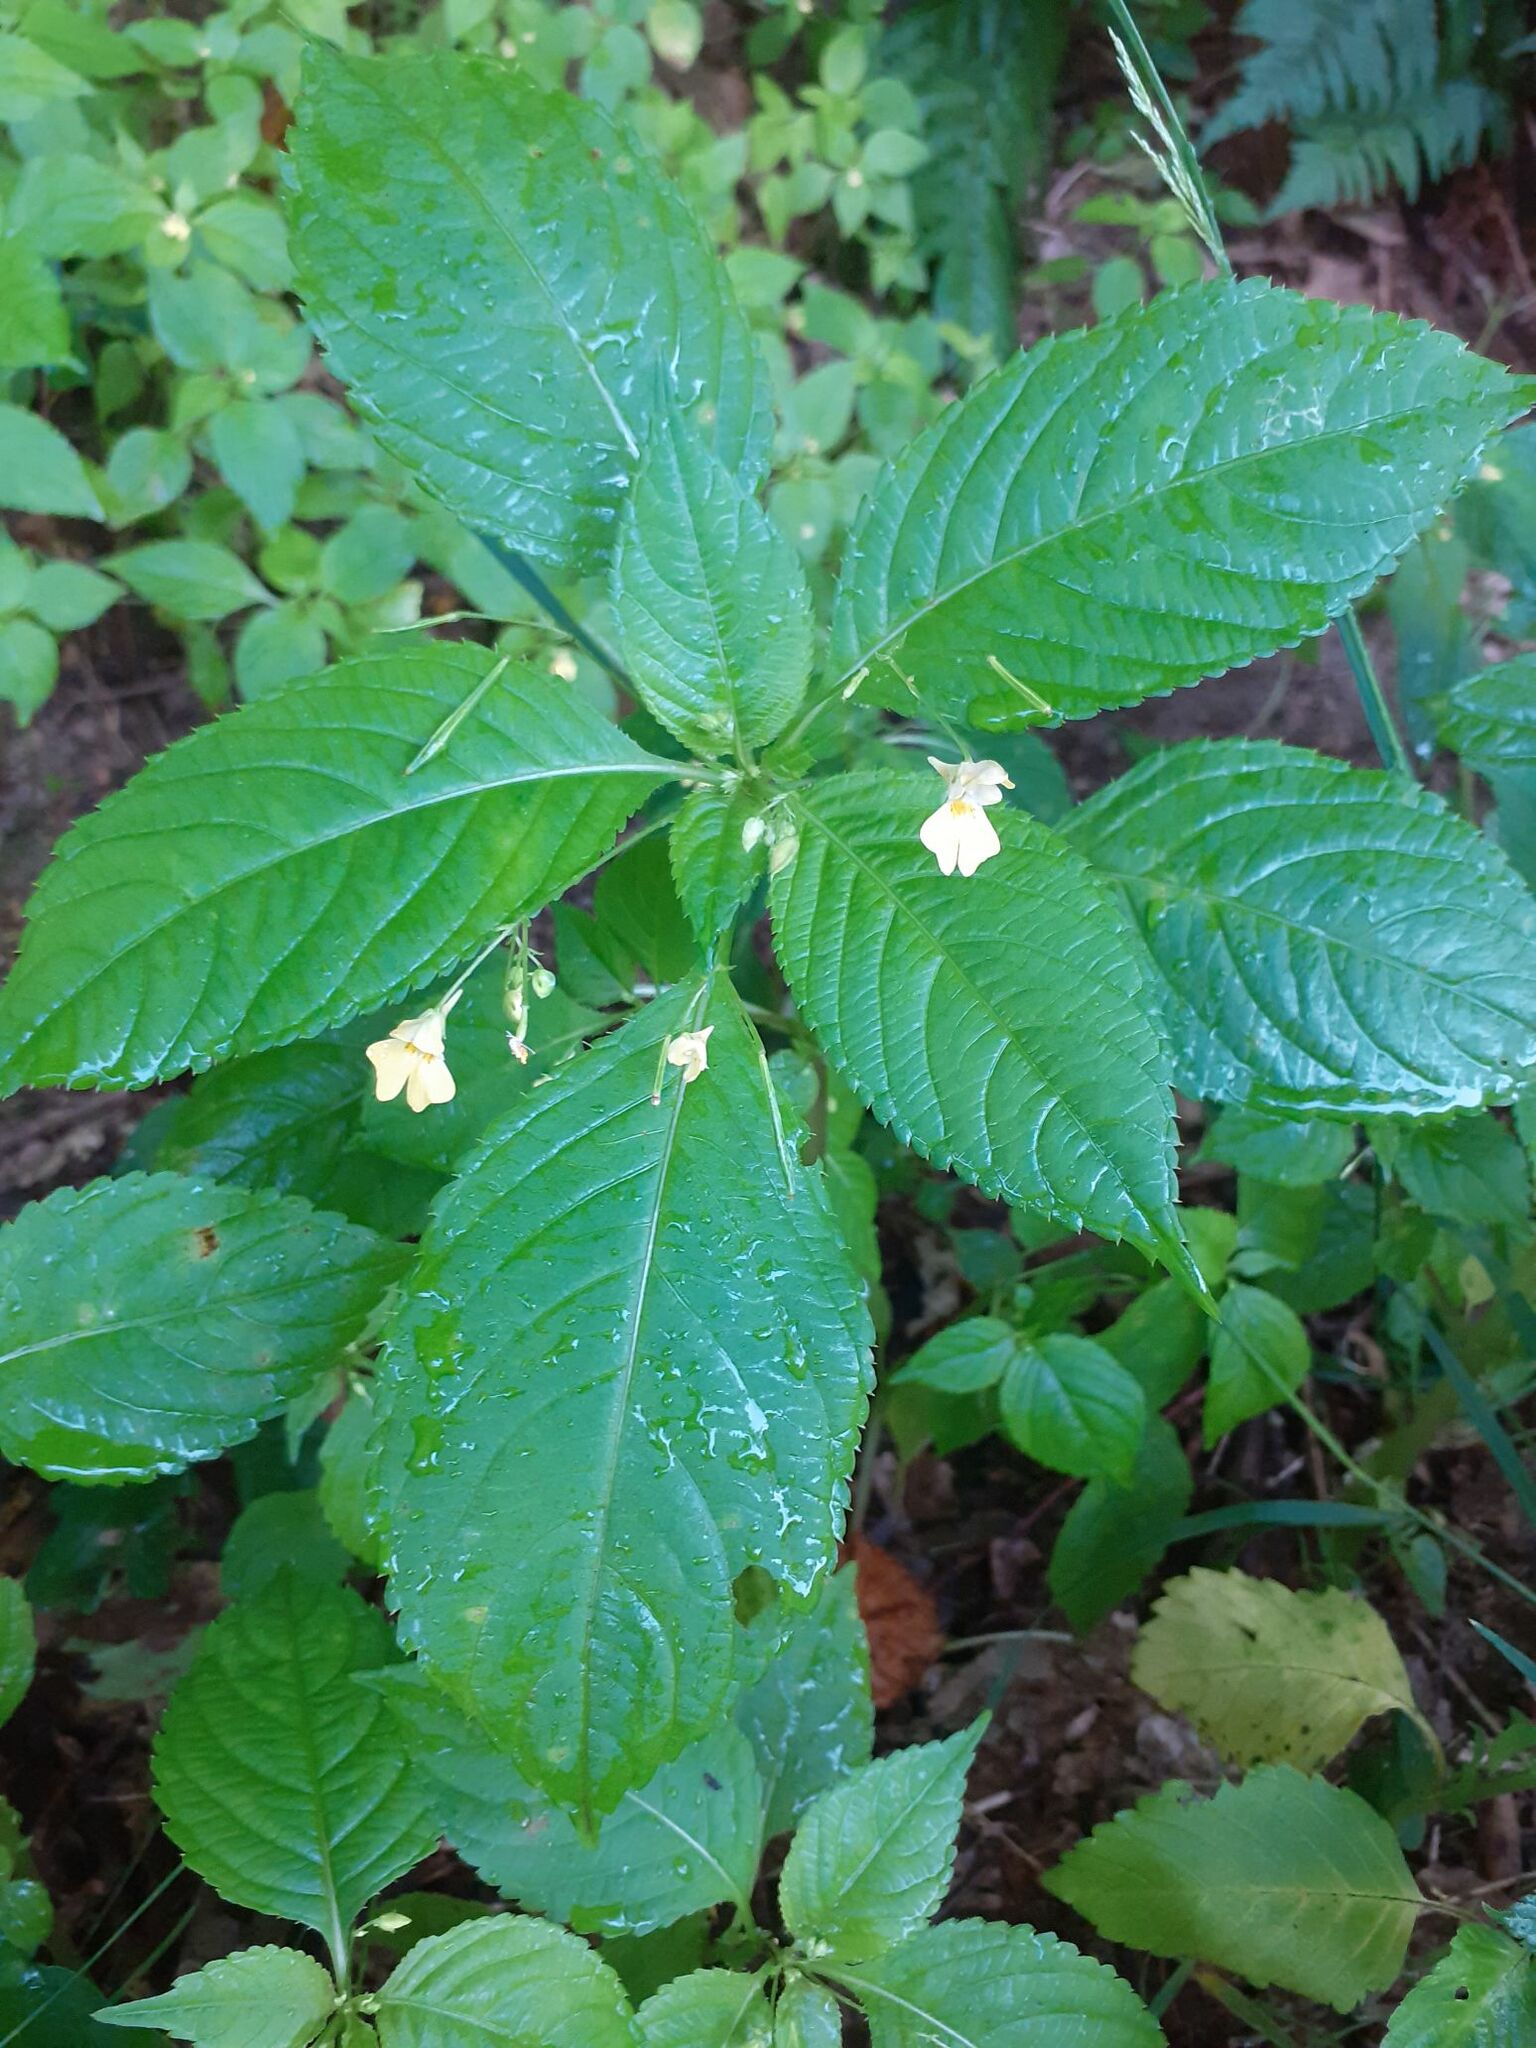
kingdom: Plantae
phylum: Tracheophyta
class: Magnoliopsida
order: Ericales
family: Balsaminaceae
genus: Impatiens
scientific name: Impatiens parviflora
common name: Small balsam
